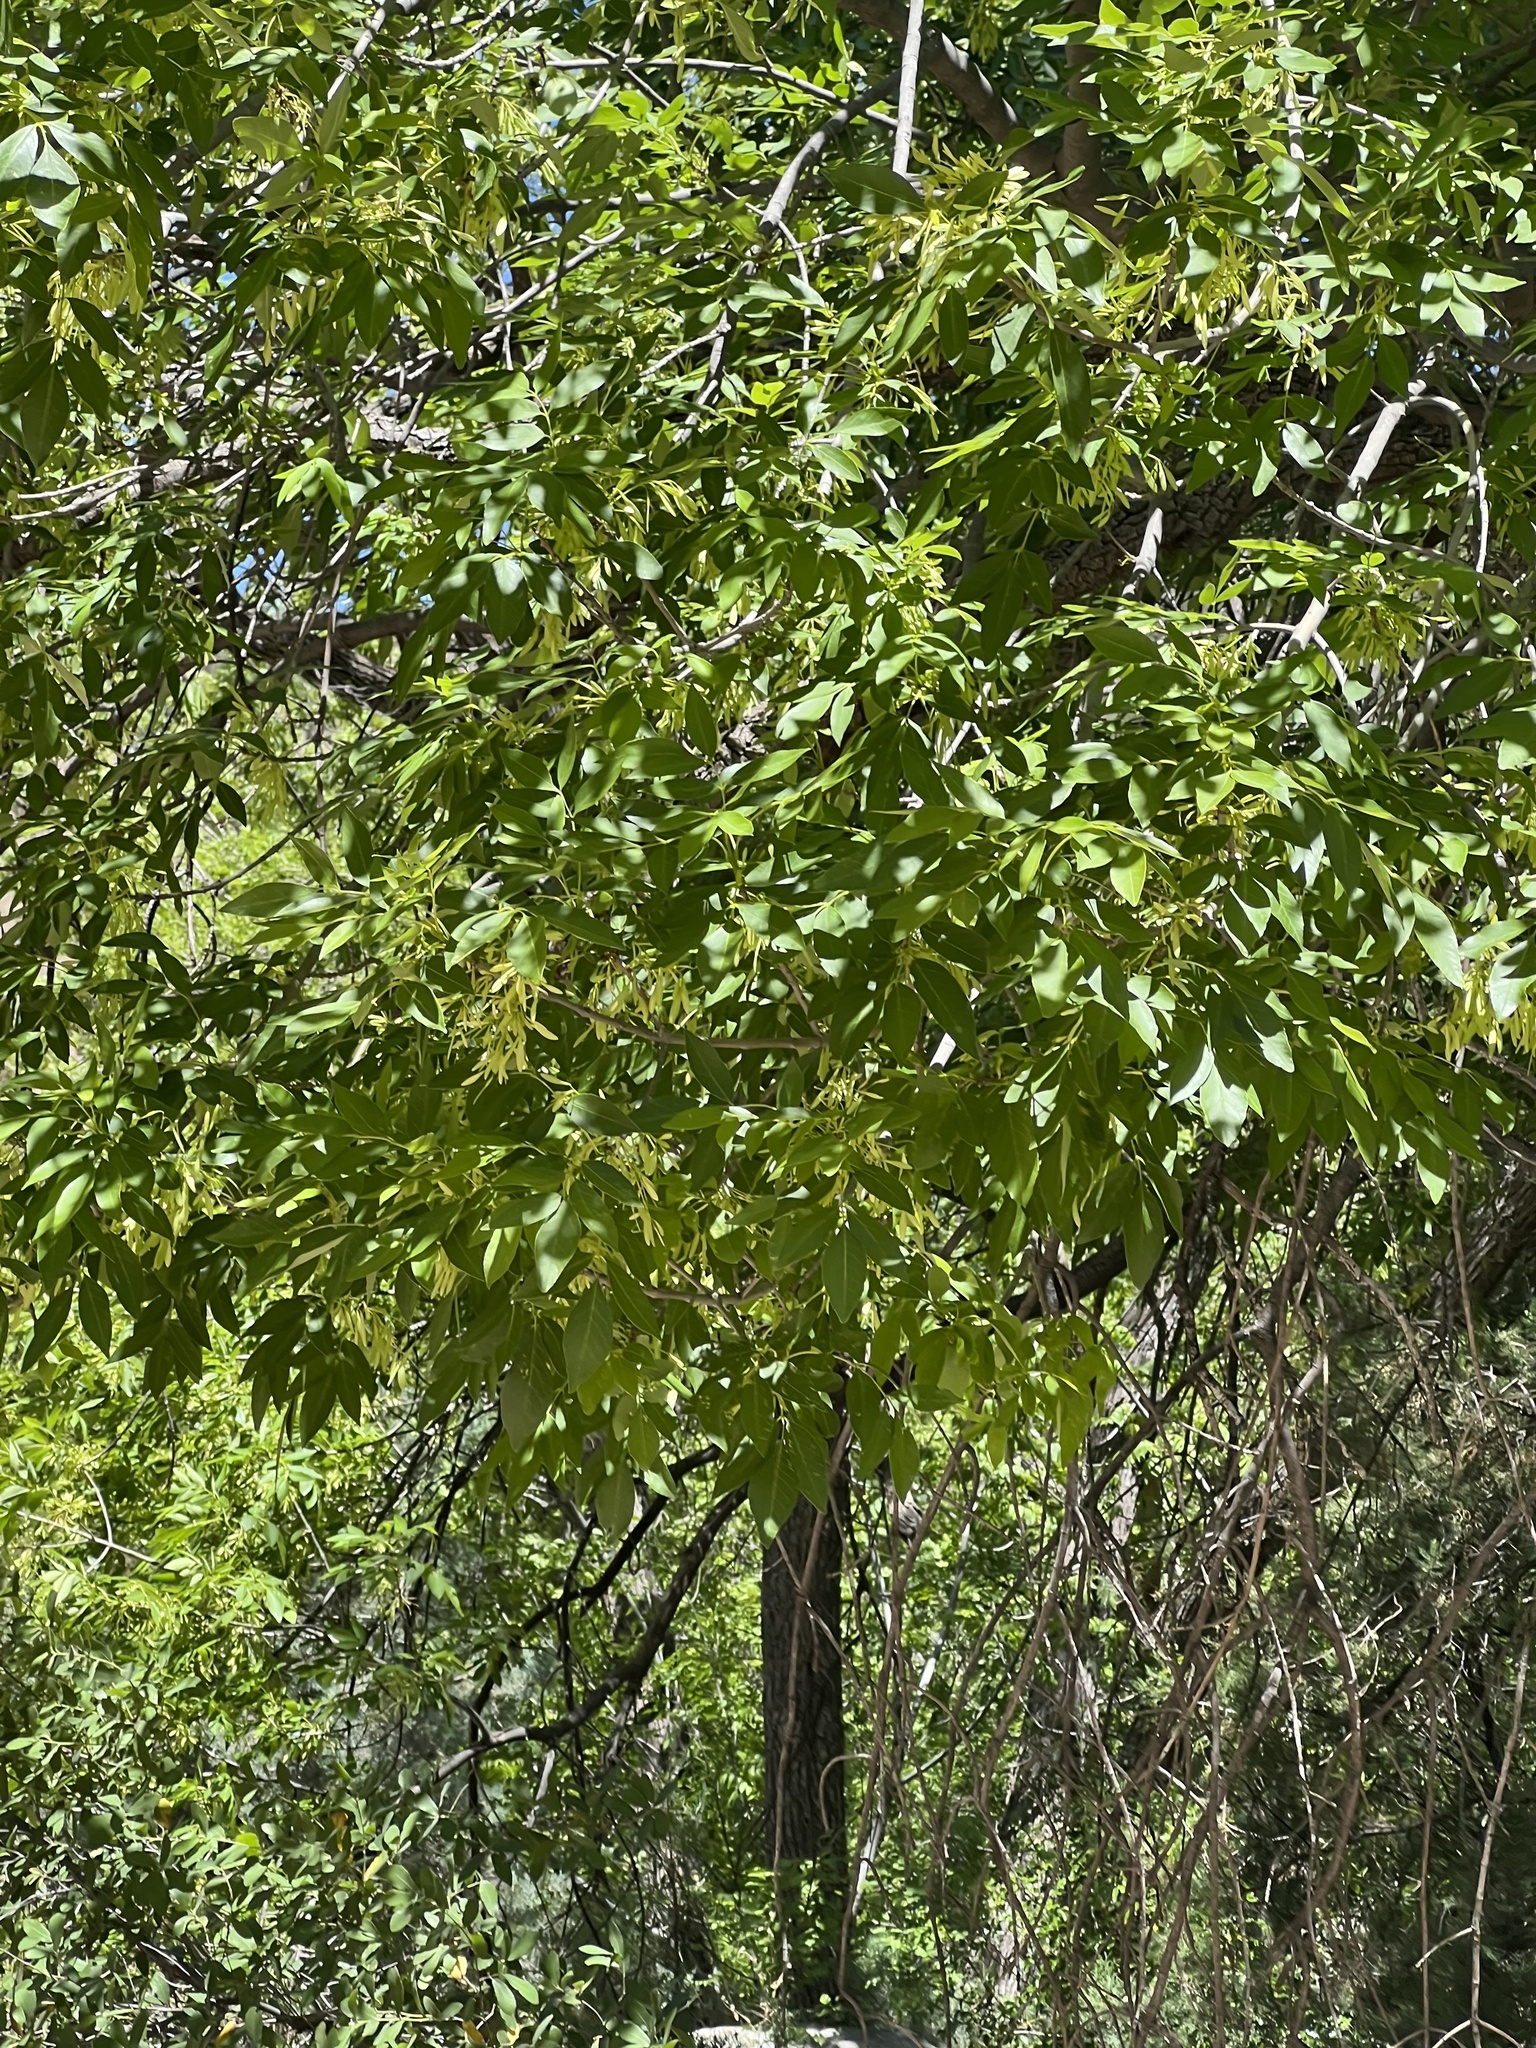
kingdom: Plantae
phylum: Tracheophyta
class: Magnoliopsida
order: Lamiales
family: Oleaceae
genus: Fraxinus
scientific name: Fraxinus velutina
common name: Arizon ash
